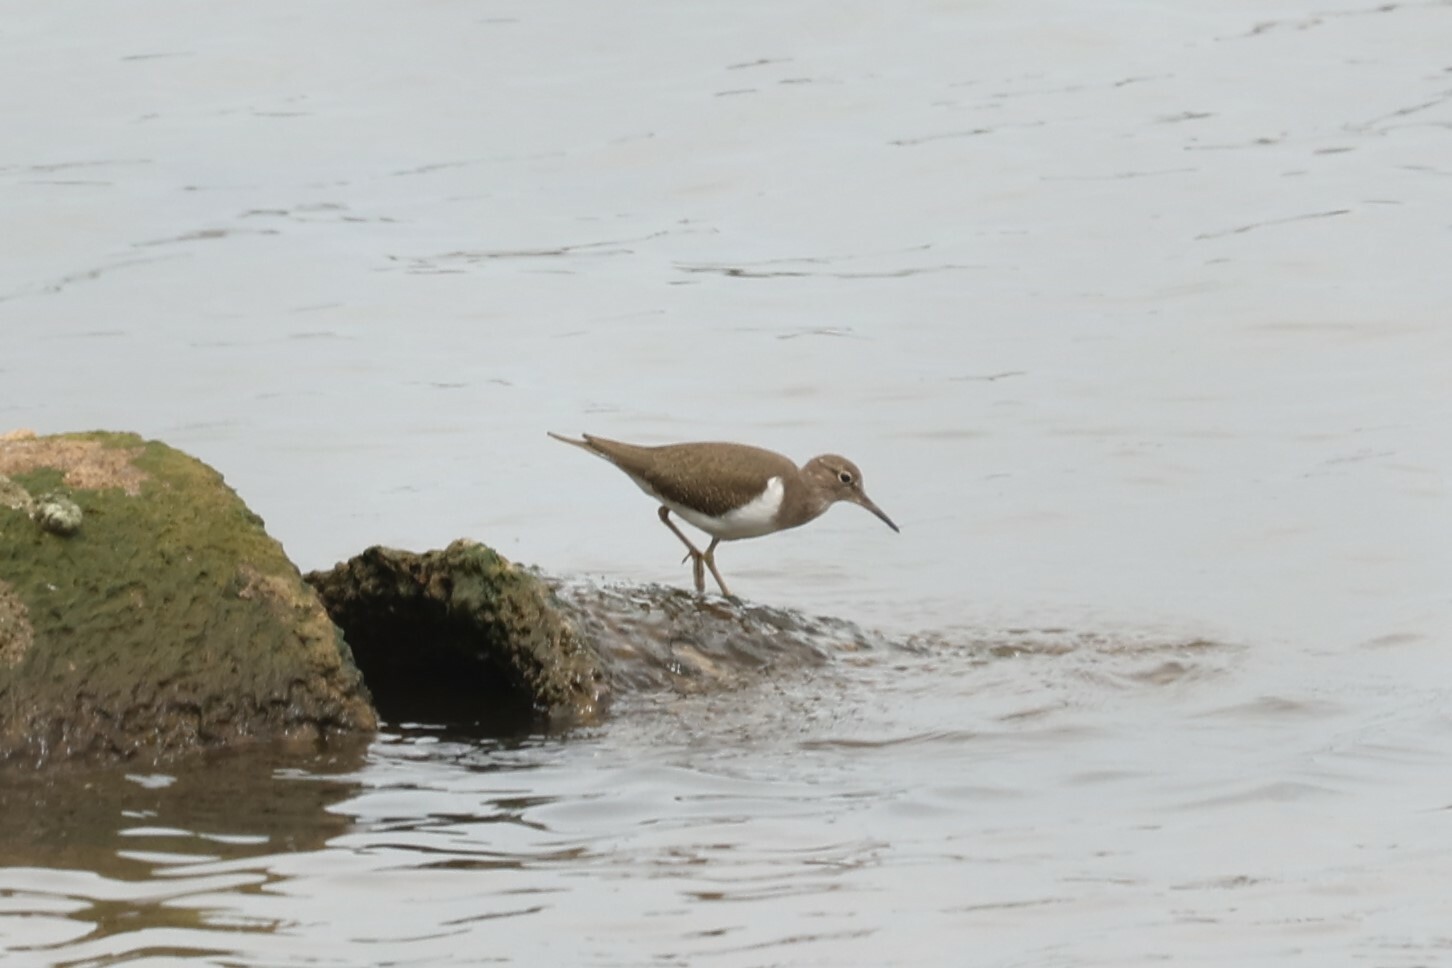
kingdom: Animalia
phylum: Chordata
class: Aves
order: Charadriiformes
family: Scolopacidae
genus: Actitis
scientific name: Actitis hypoleucos
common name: Common sandpiper
